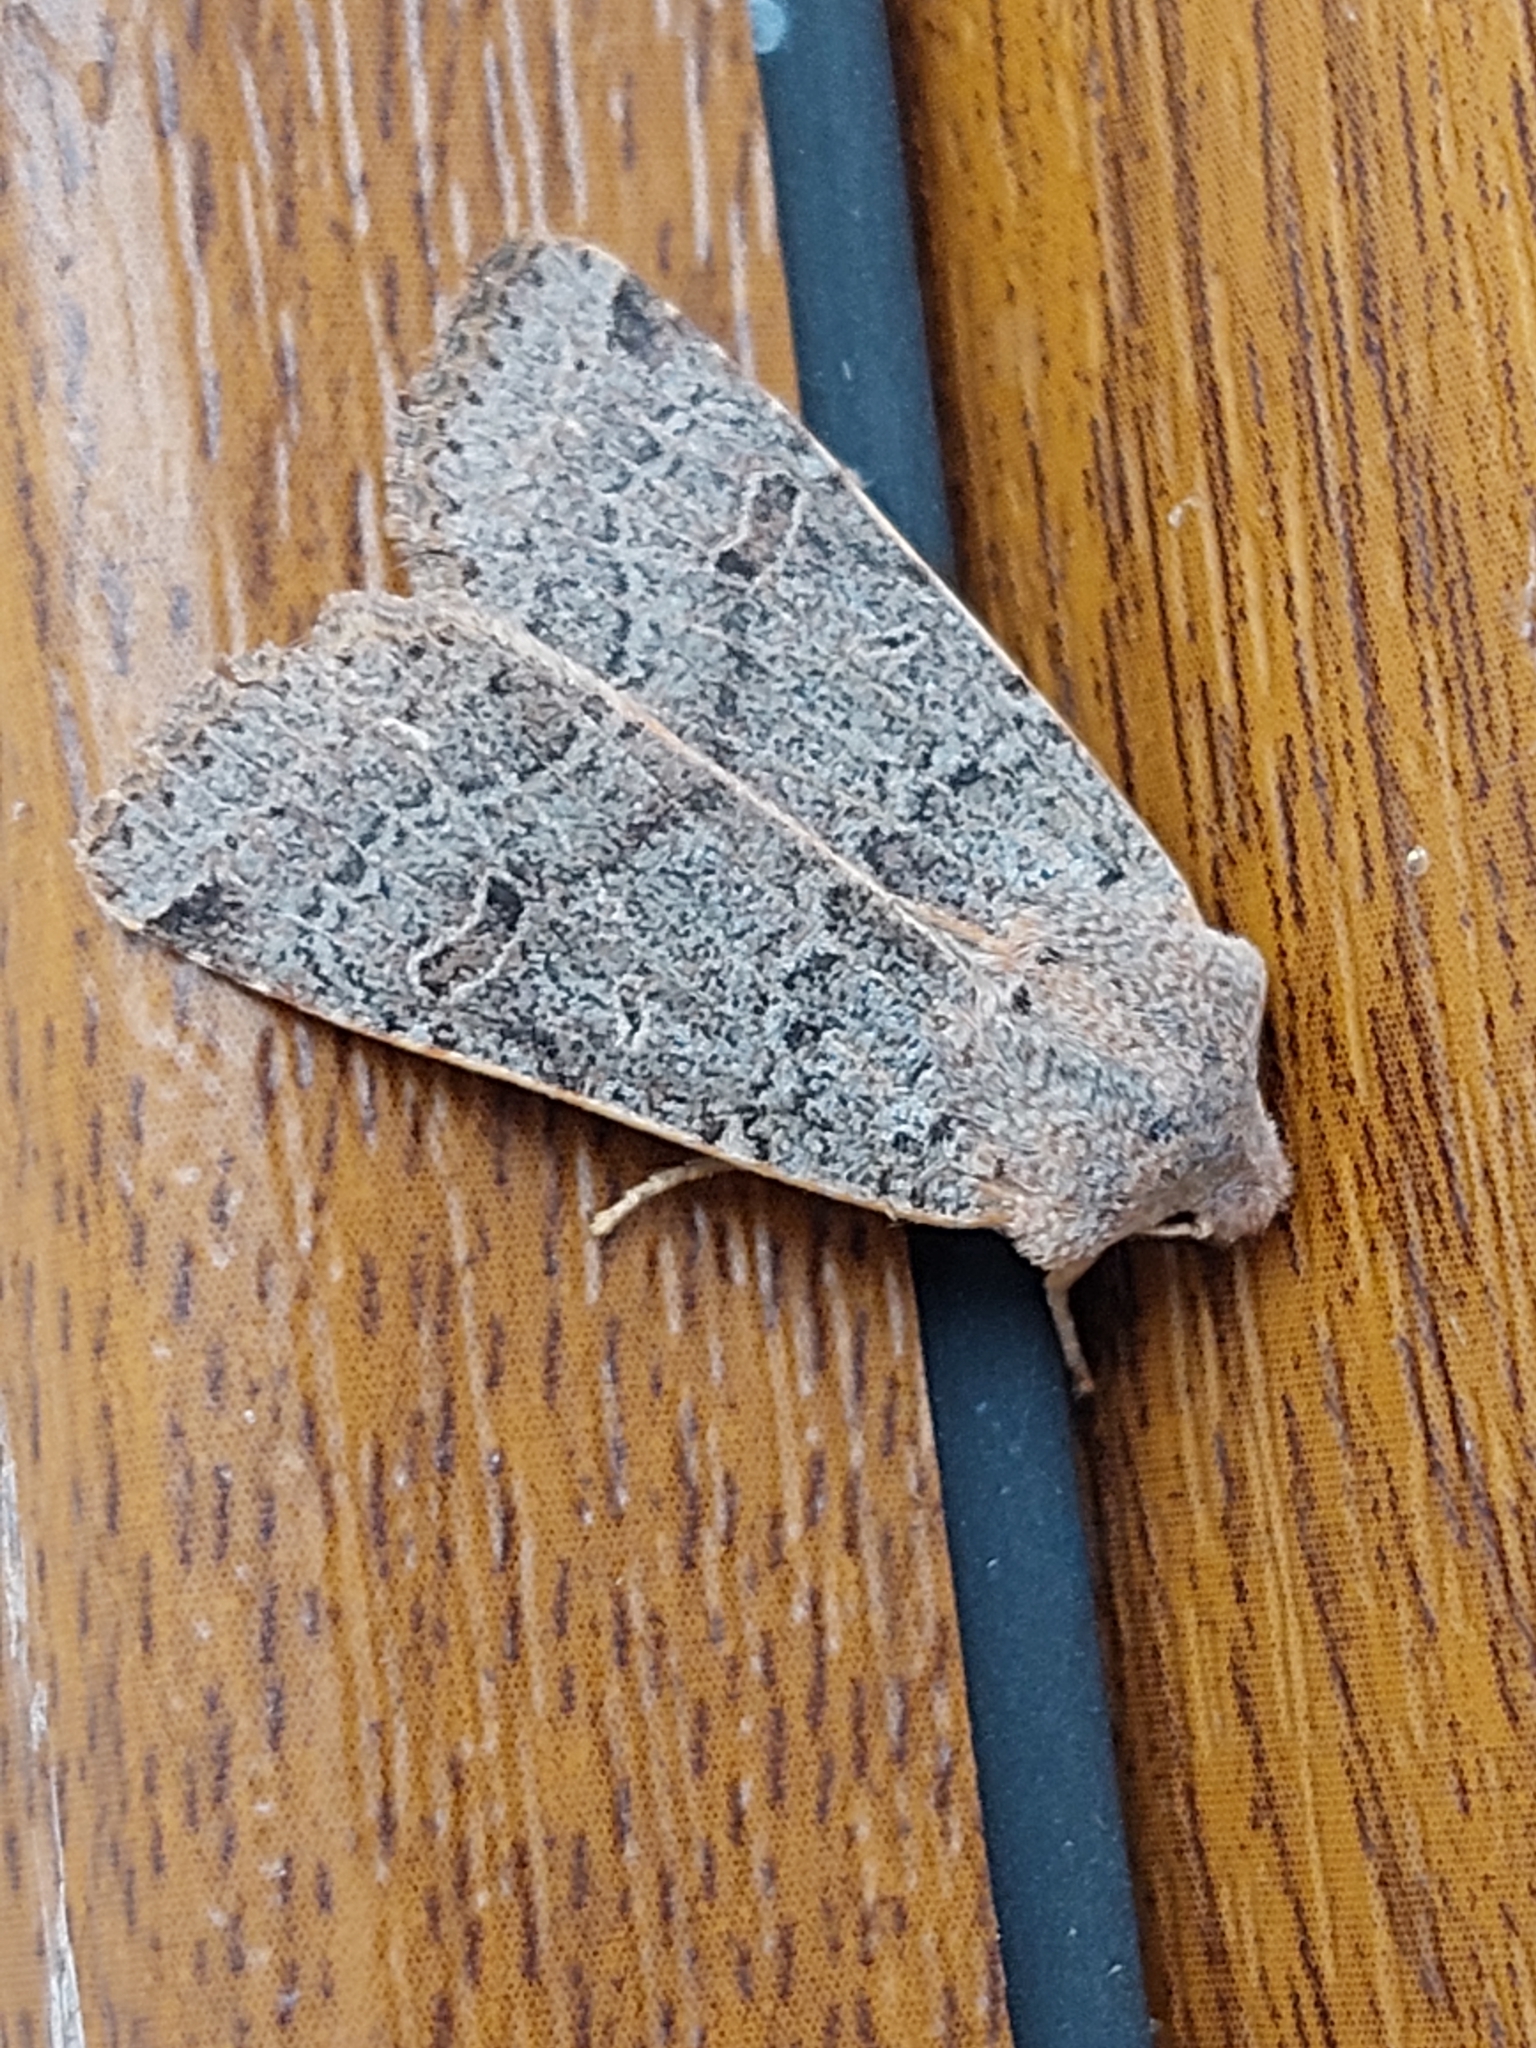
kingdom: Animalia
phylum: Arthropoda
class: Insecta
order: Lepidoptera
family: Noctuidae
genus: Agrochola
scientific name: Agrochola lychnidis
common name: Beaded chestnut
